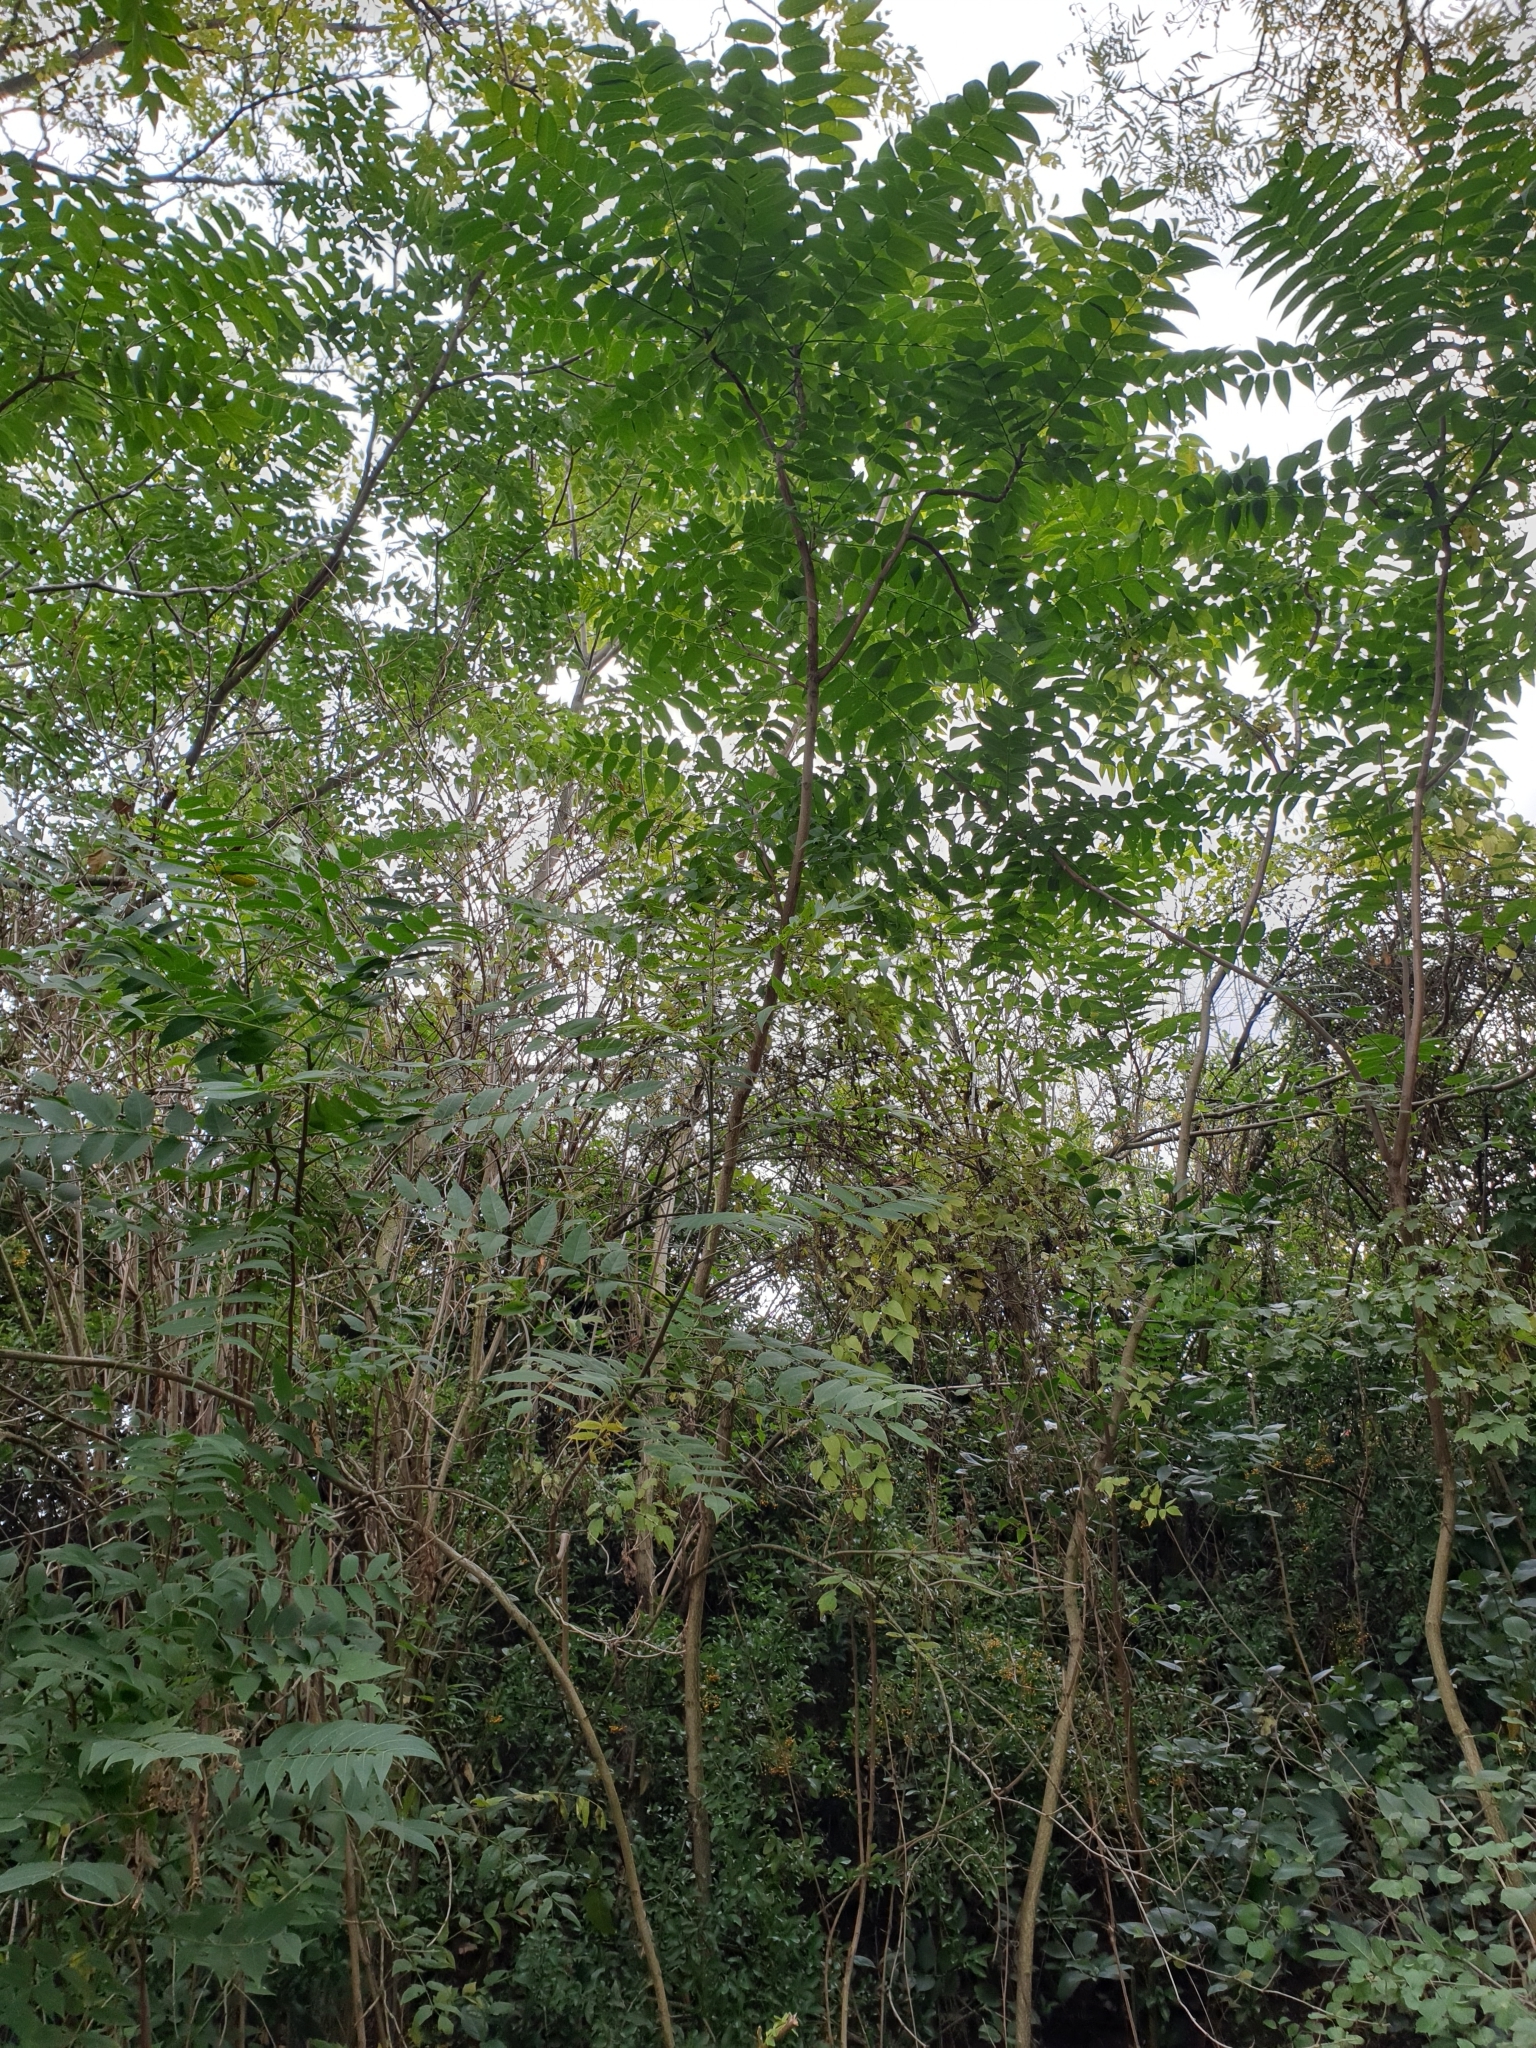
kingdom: Plantae
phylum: Tracheophyta
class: Magnoliopsida
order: Sapindales
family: Simaroubaceae
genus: Ailanthus
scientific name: Ailanthus altissima
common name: Tree-of-heaven
